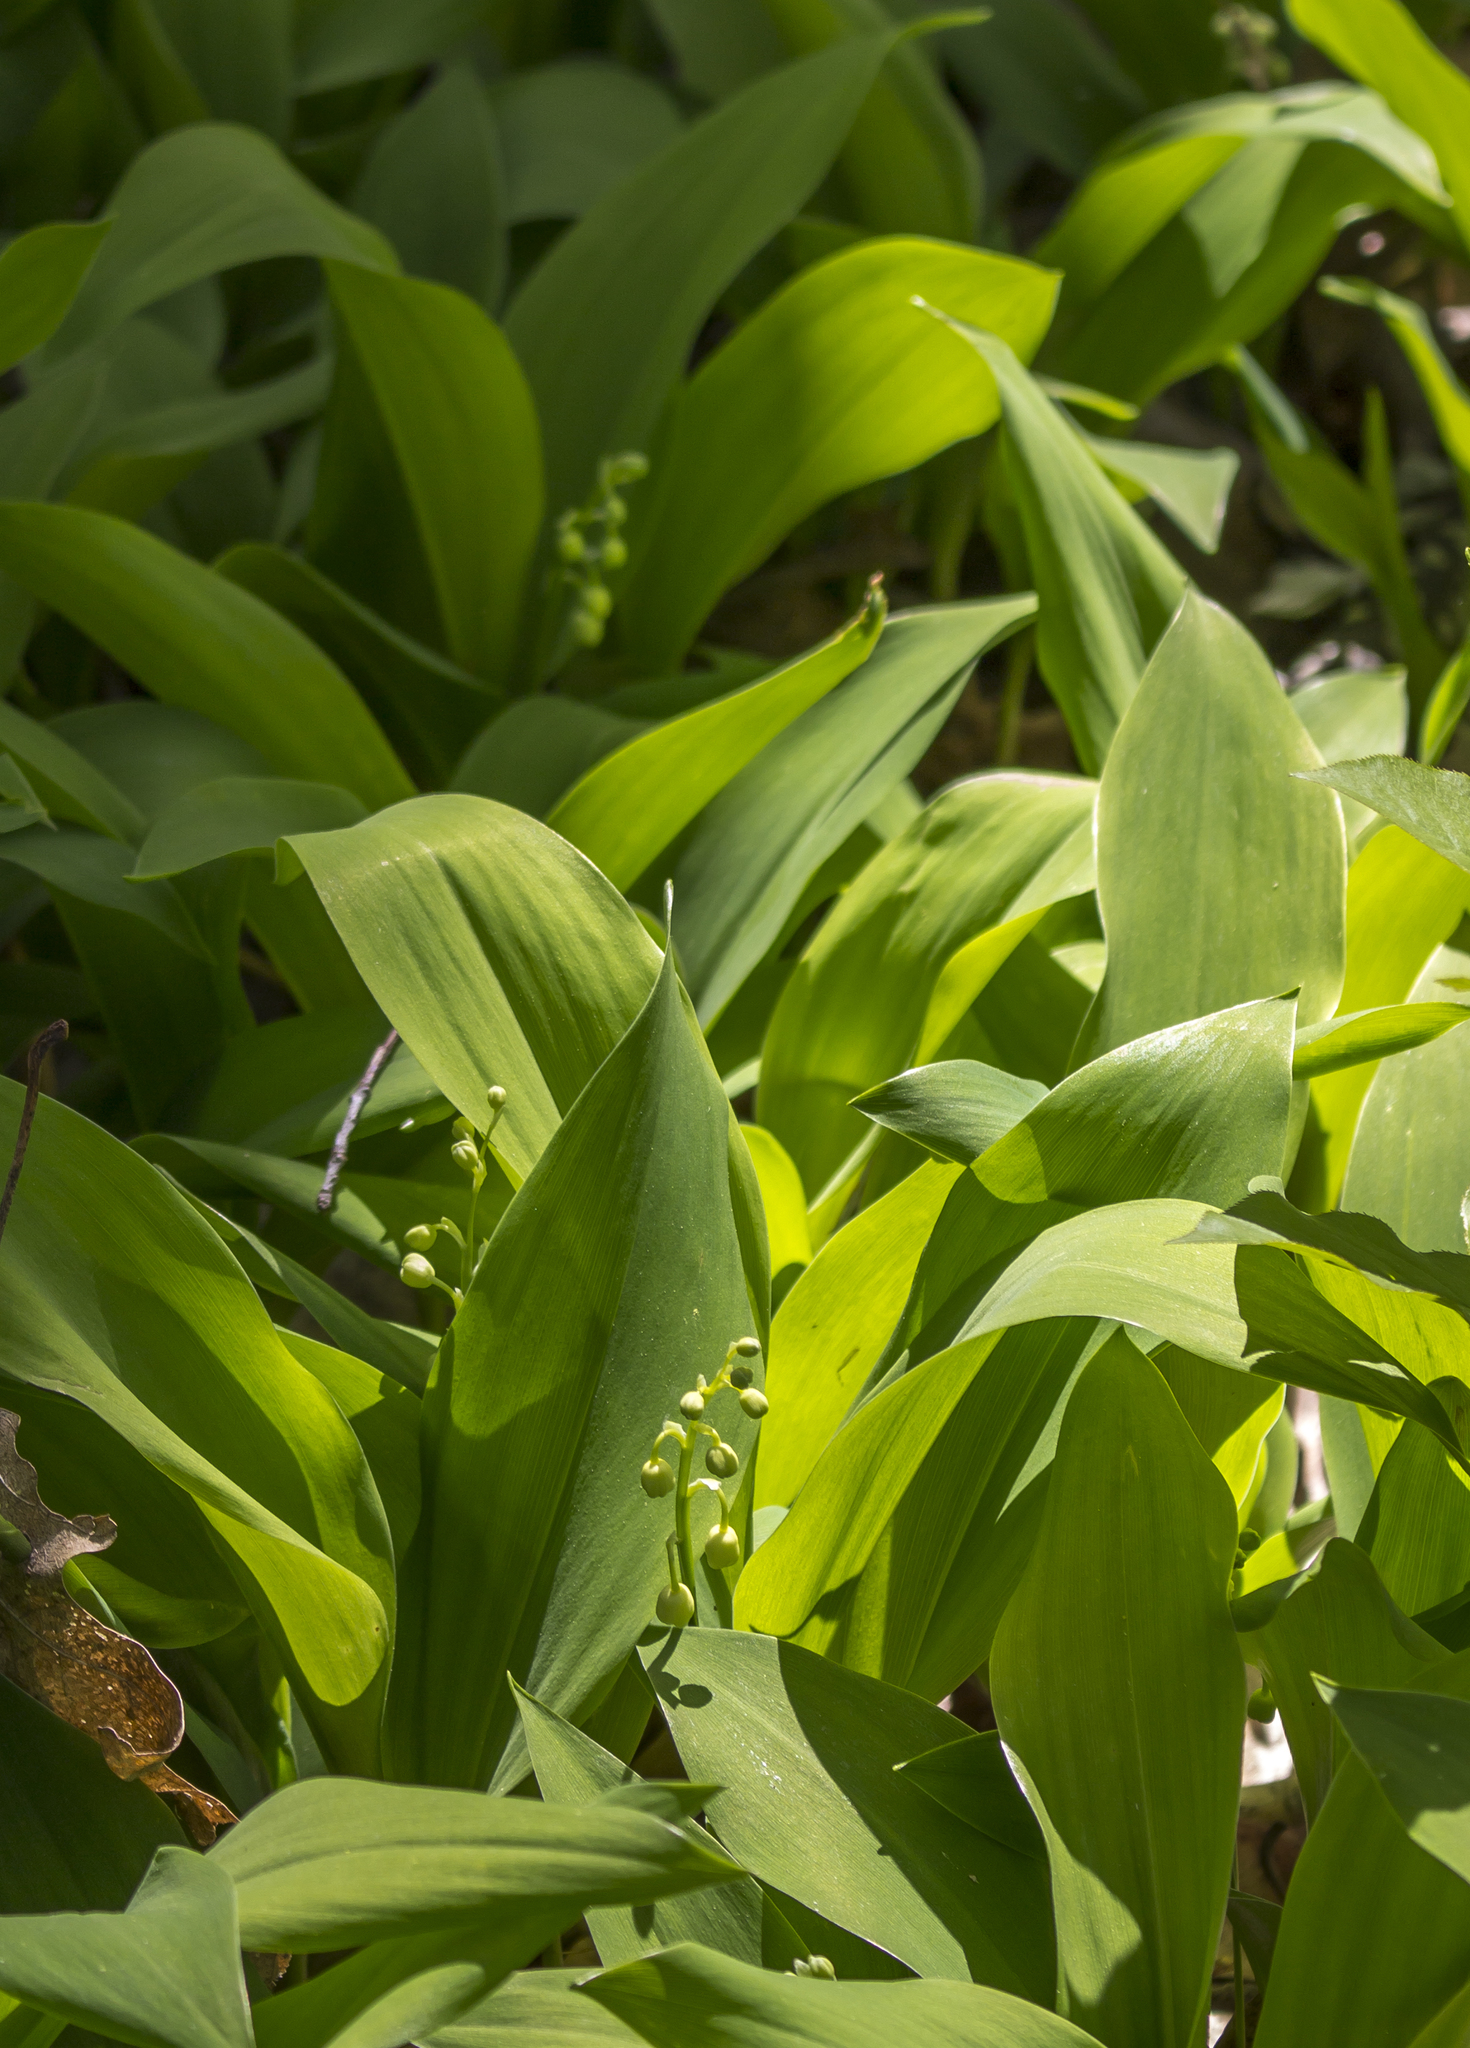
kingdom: Plantae
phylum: Tracheophyta
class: Liliopsida
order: Asparagales
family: Asparagaceae
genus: Convallaria
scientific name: Convallaria majalis
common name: Lily-of-the-valley
